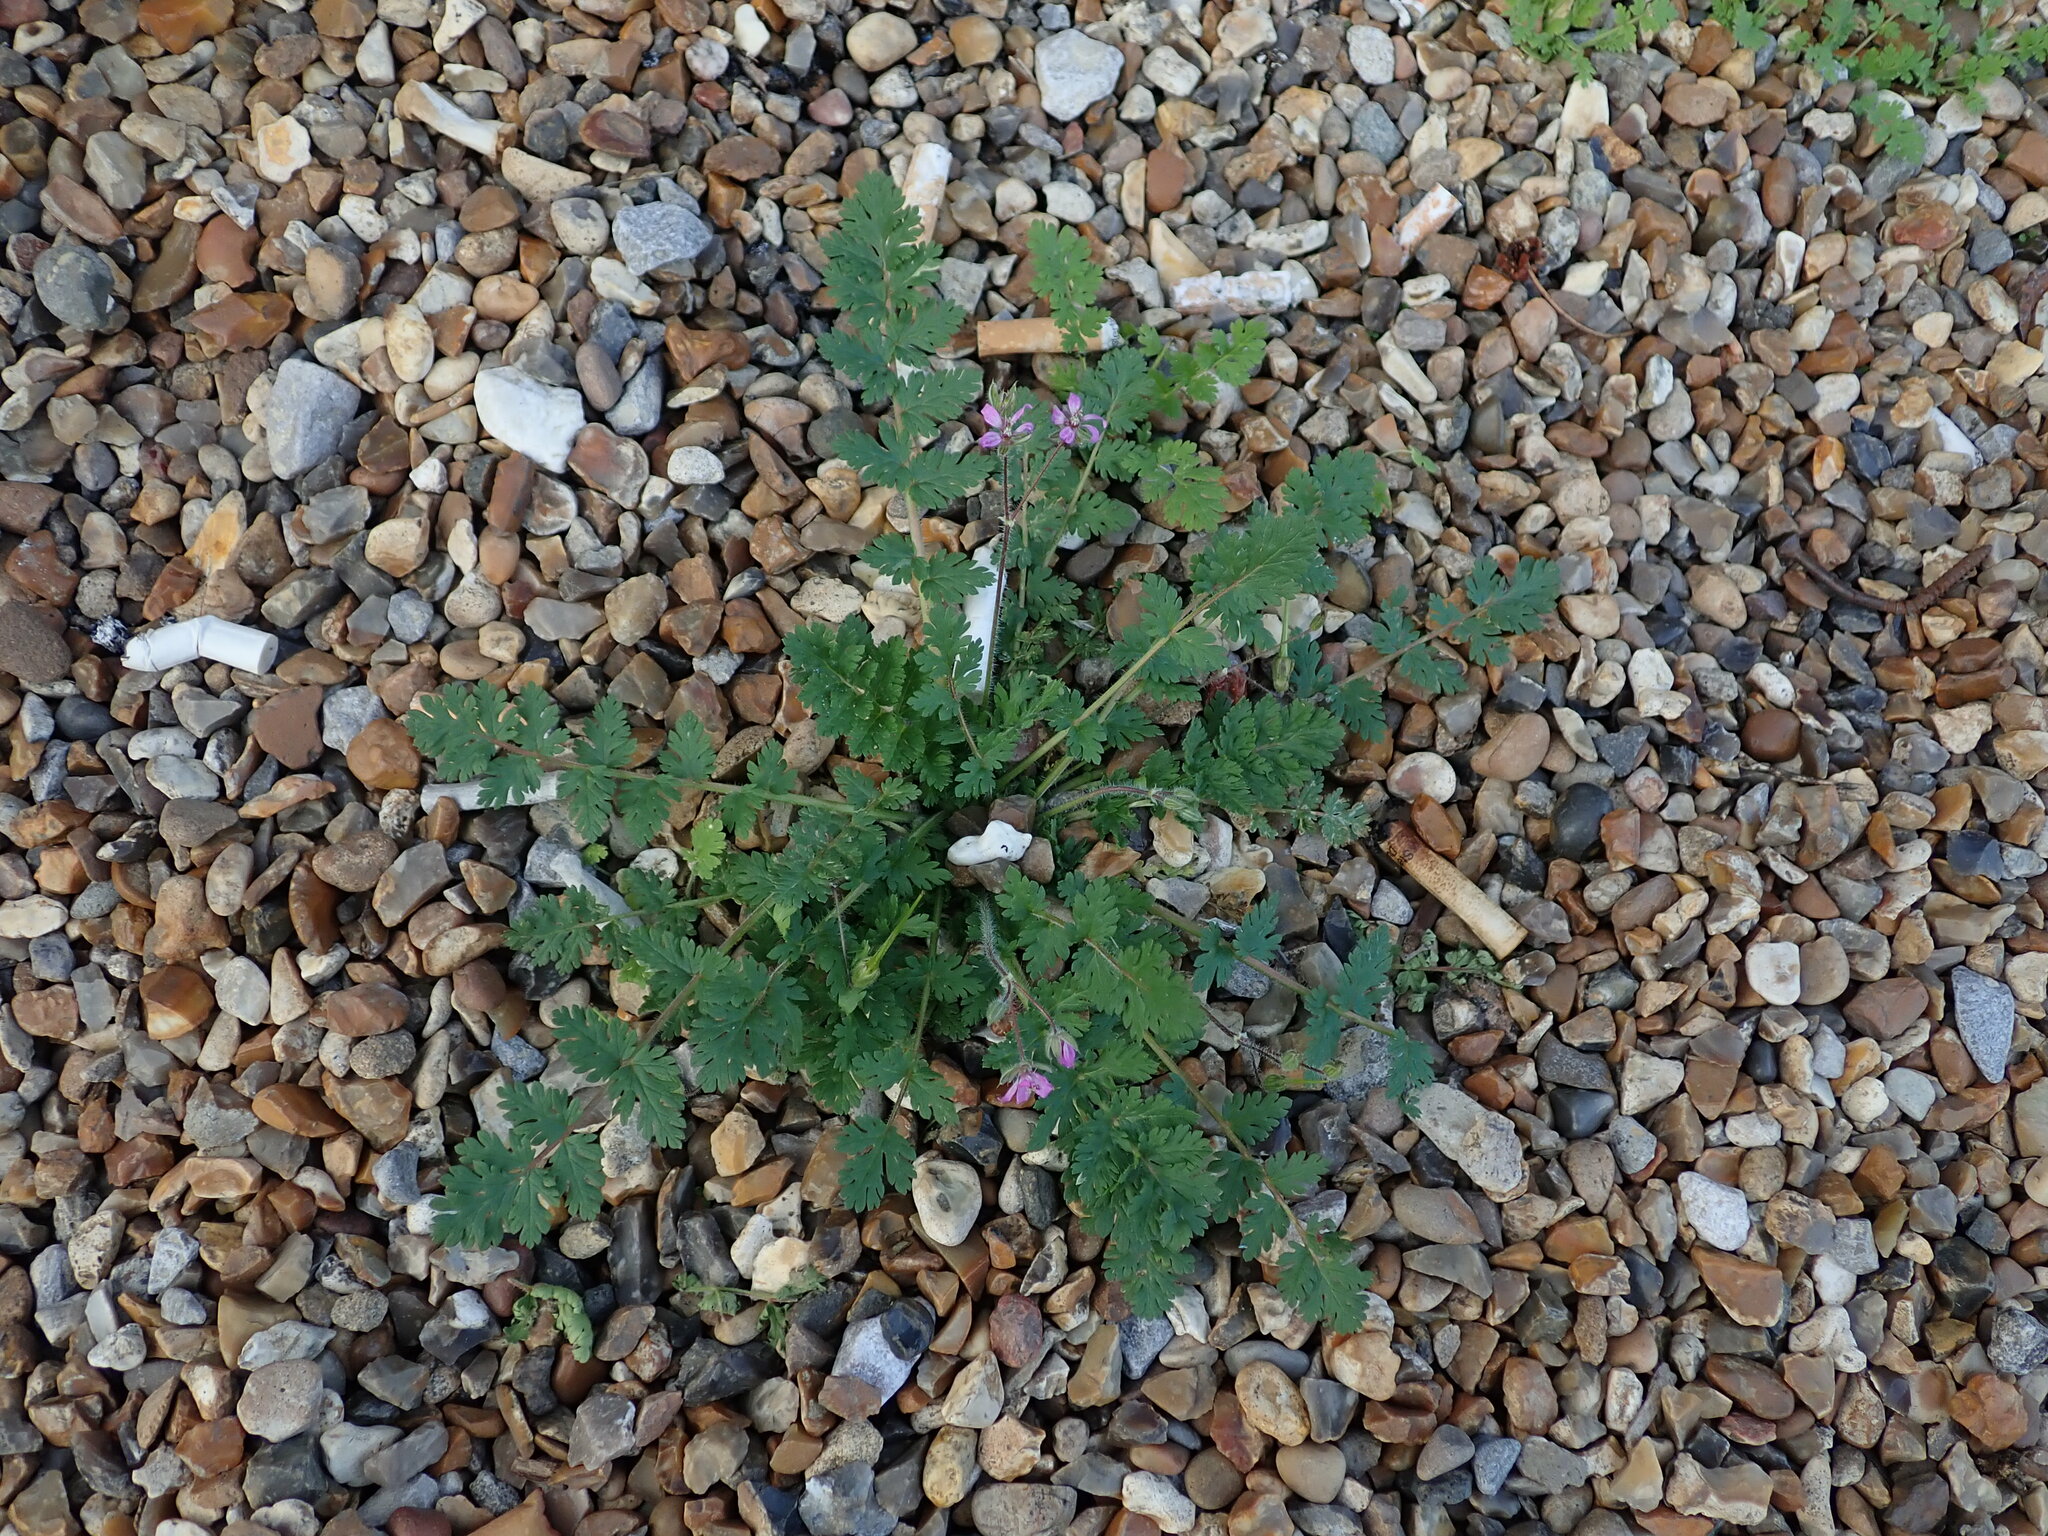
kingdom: Plantae
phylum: Tracheophyta
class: Magnoliopsida
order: Geraniales
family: Geraniaceae
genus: Erodium
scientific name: Erodium cicutarium
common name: Common stork's-bill
